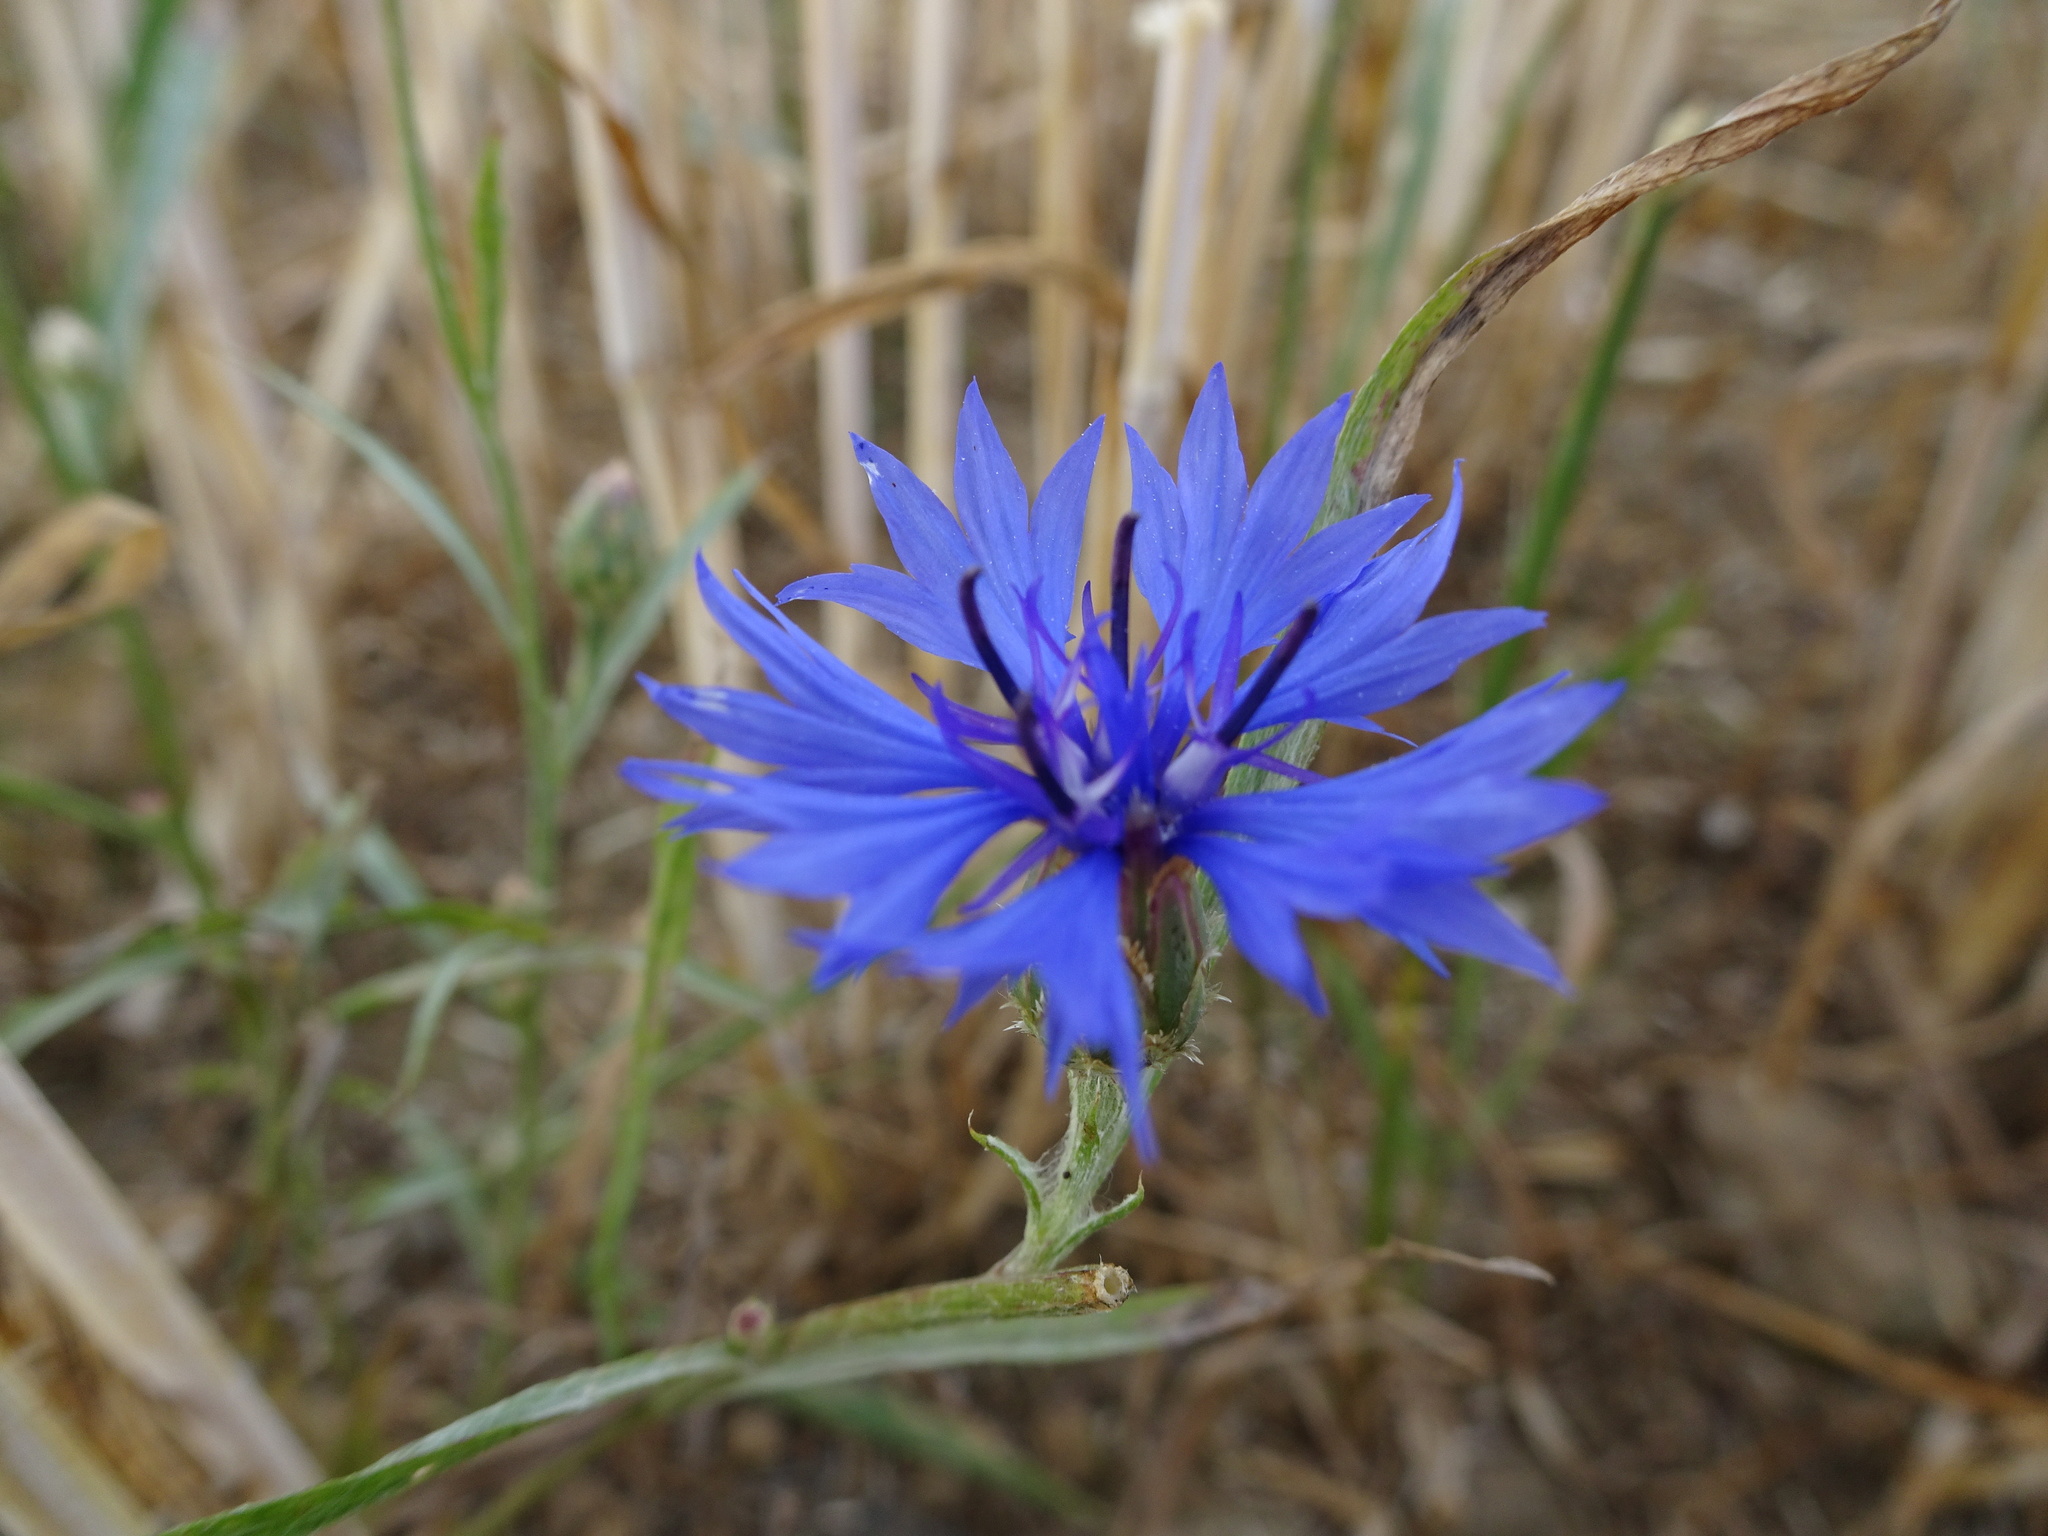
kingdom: Plantae
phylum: Tracheophyta
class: Magnoliopsida
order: Asterales
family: Asteraceae
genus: Centaurea
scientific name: Centaurea cyanus
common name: Cornflower
